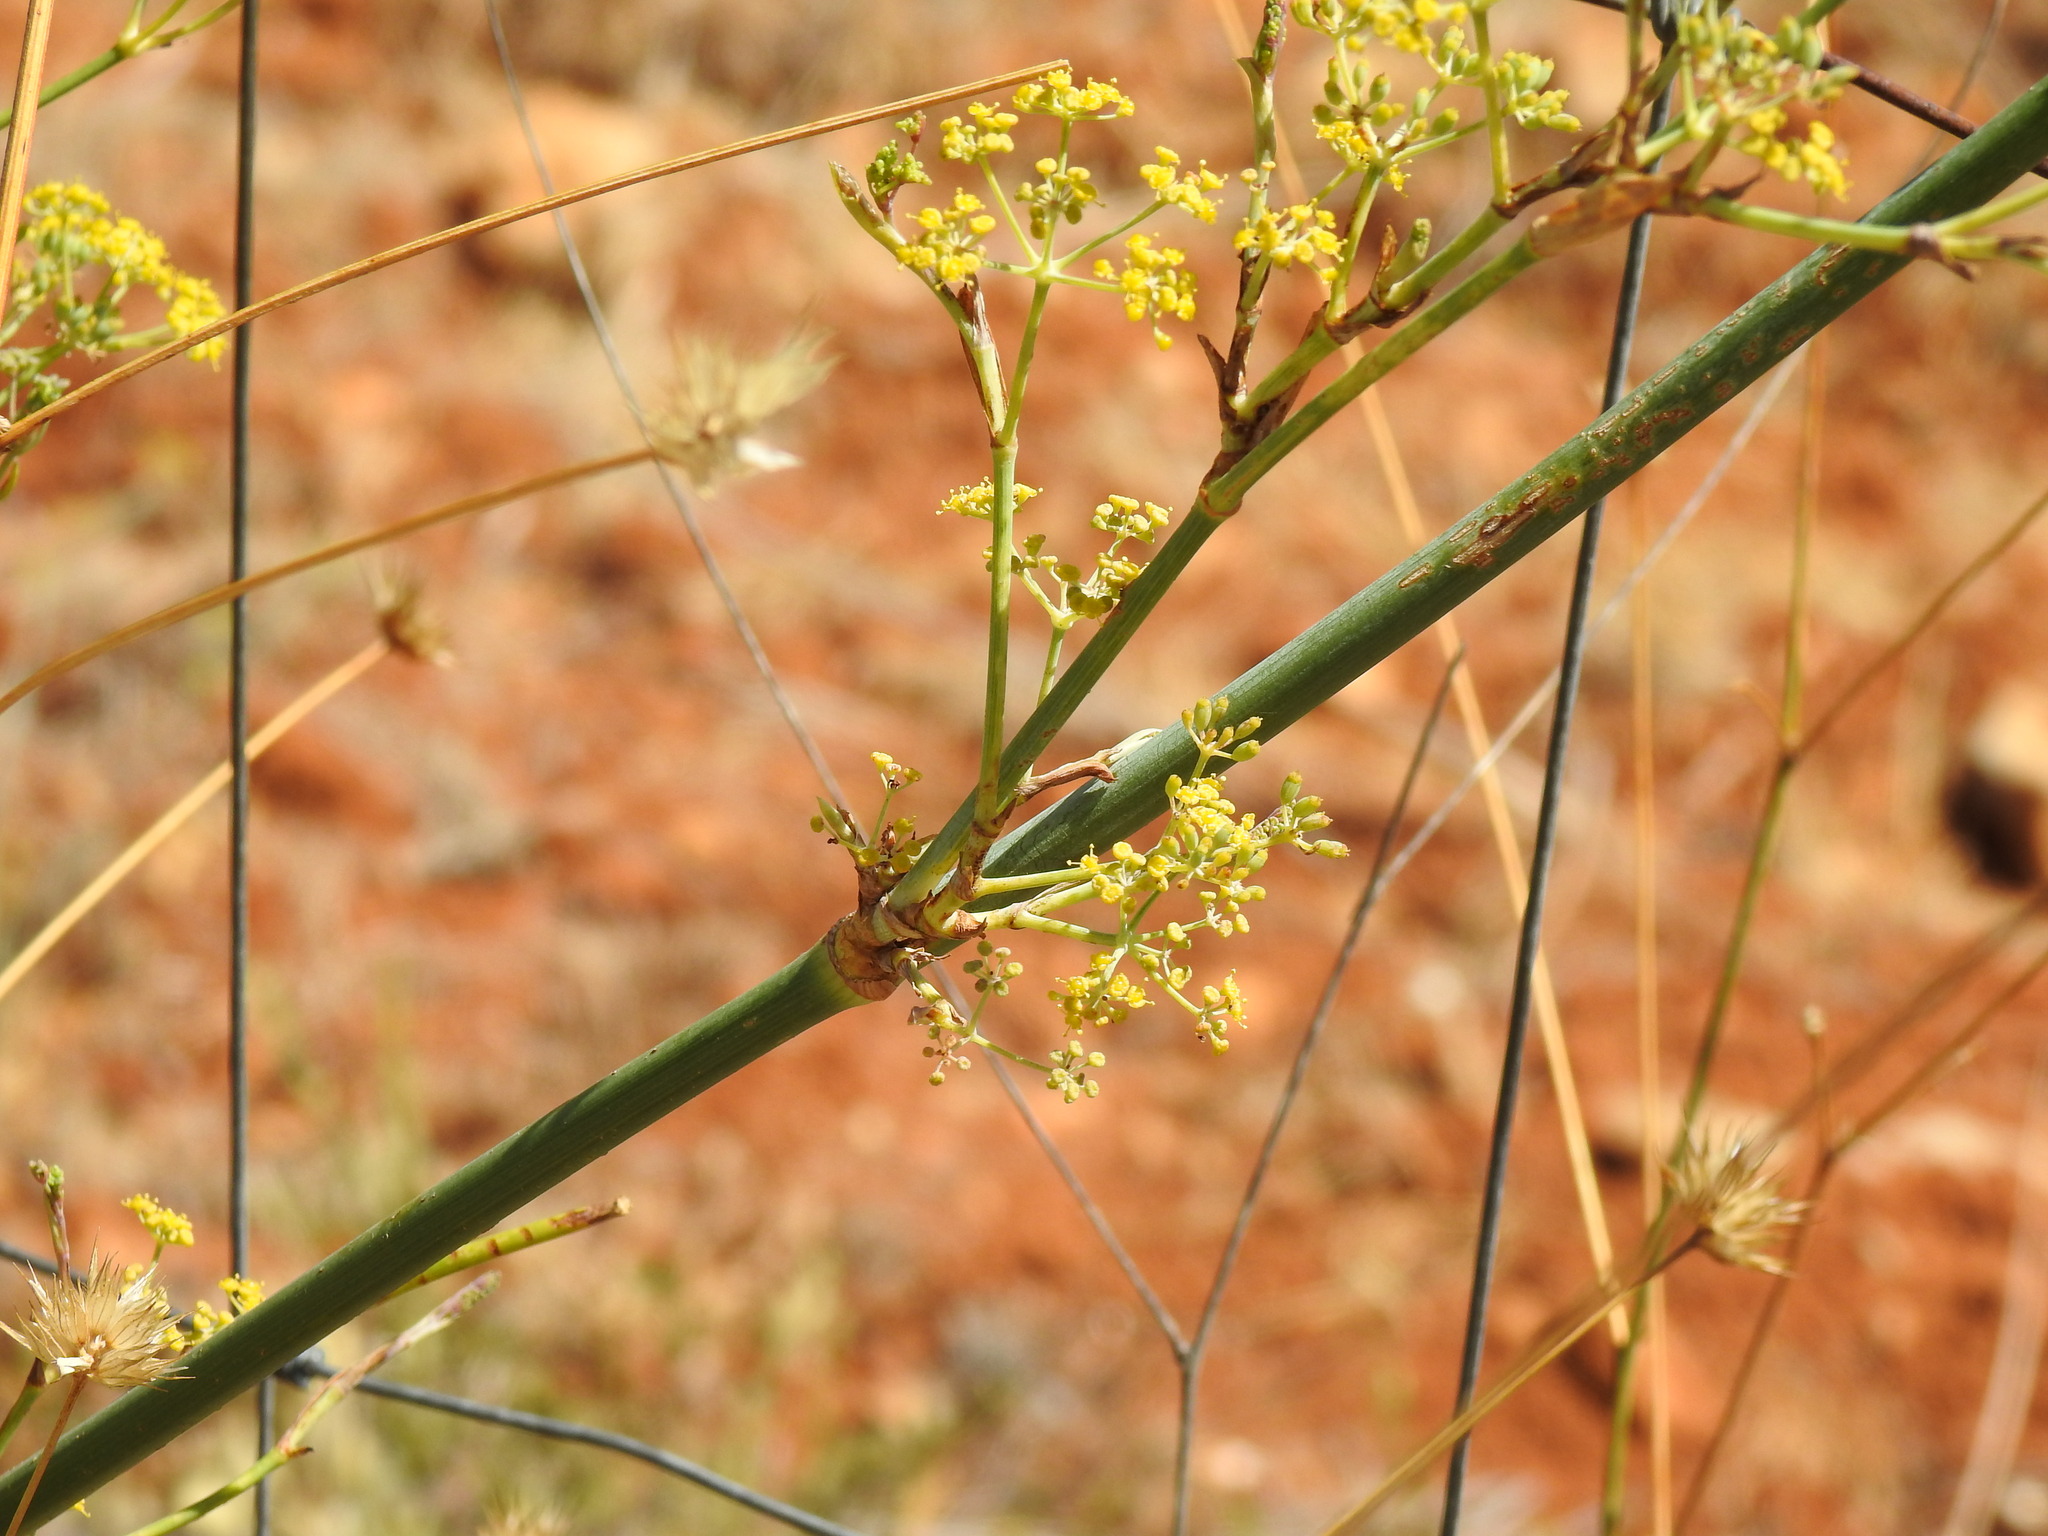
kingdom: Plantae
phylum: Tracheophyta
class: Magnoliopsida
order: Apiales
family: Apiaceae
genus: Foeniculum
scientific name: Foeniculum vulgare
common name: Fennel
